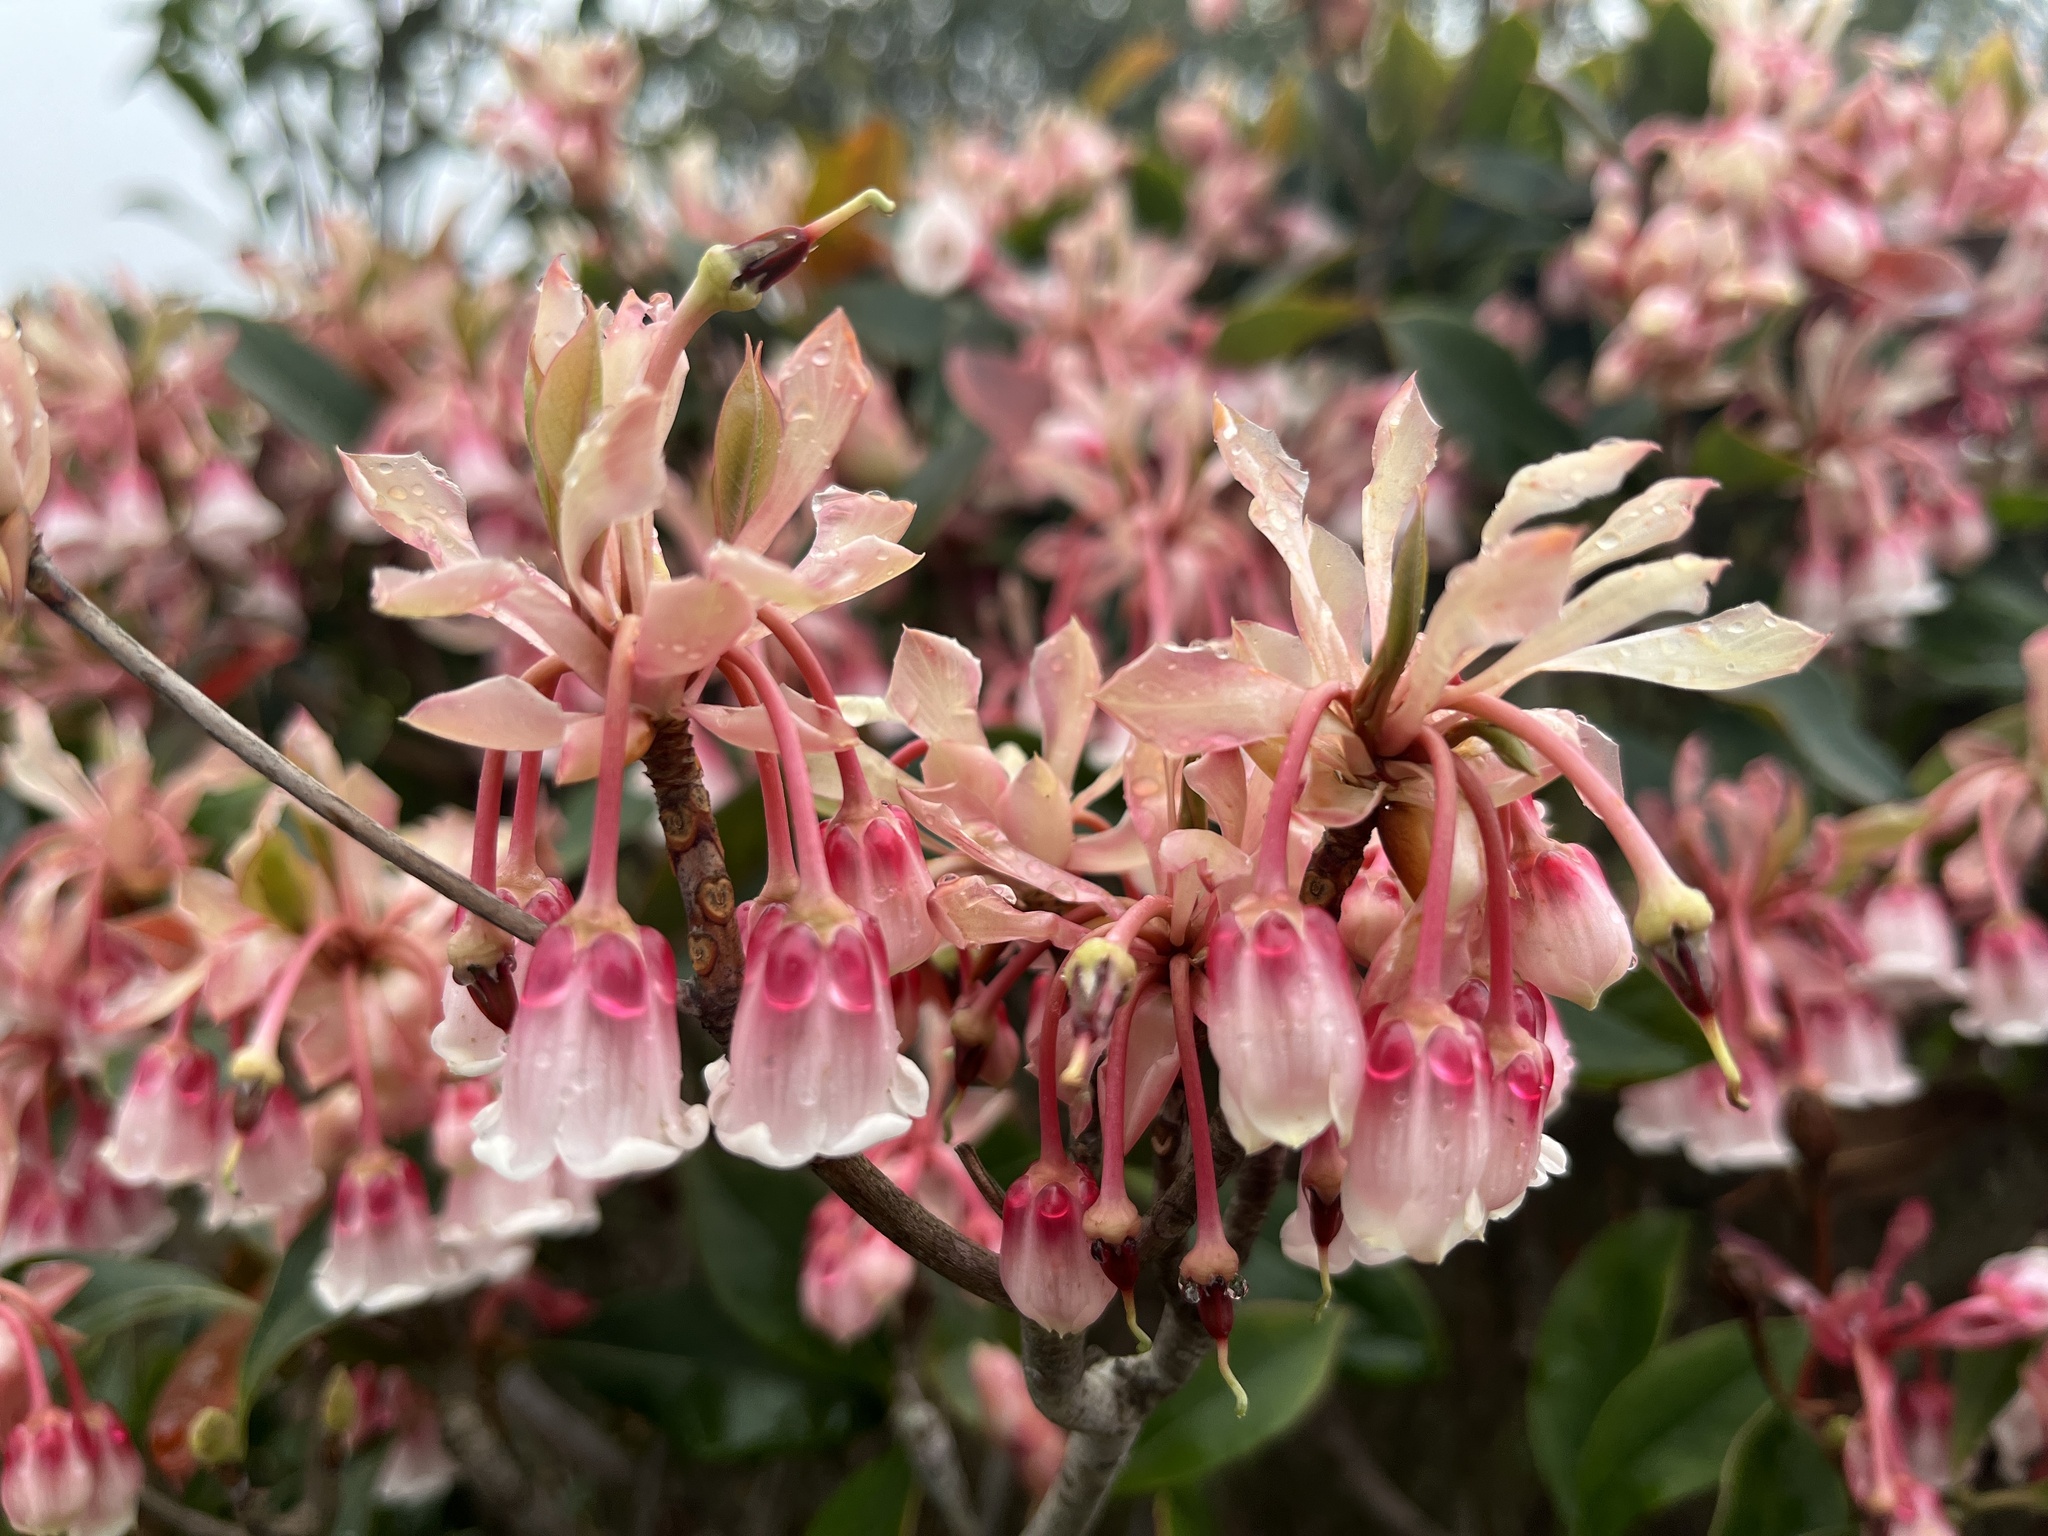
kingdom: Plantae
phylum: Tracheophyta
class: Magnoliopsida
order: Ericales
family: Ericaceae
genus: Enkianthus
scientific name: Enkianthus quinqueflorus
